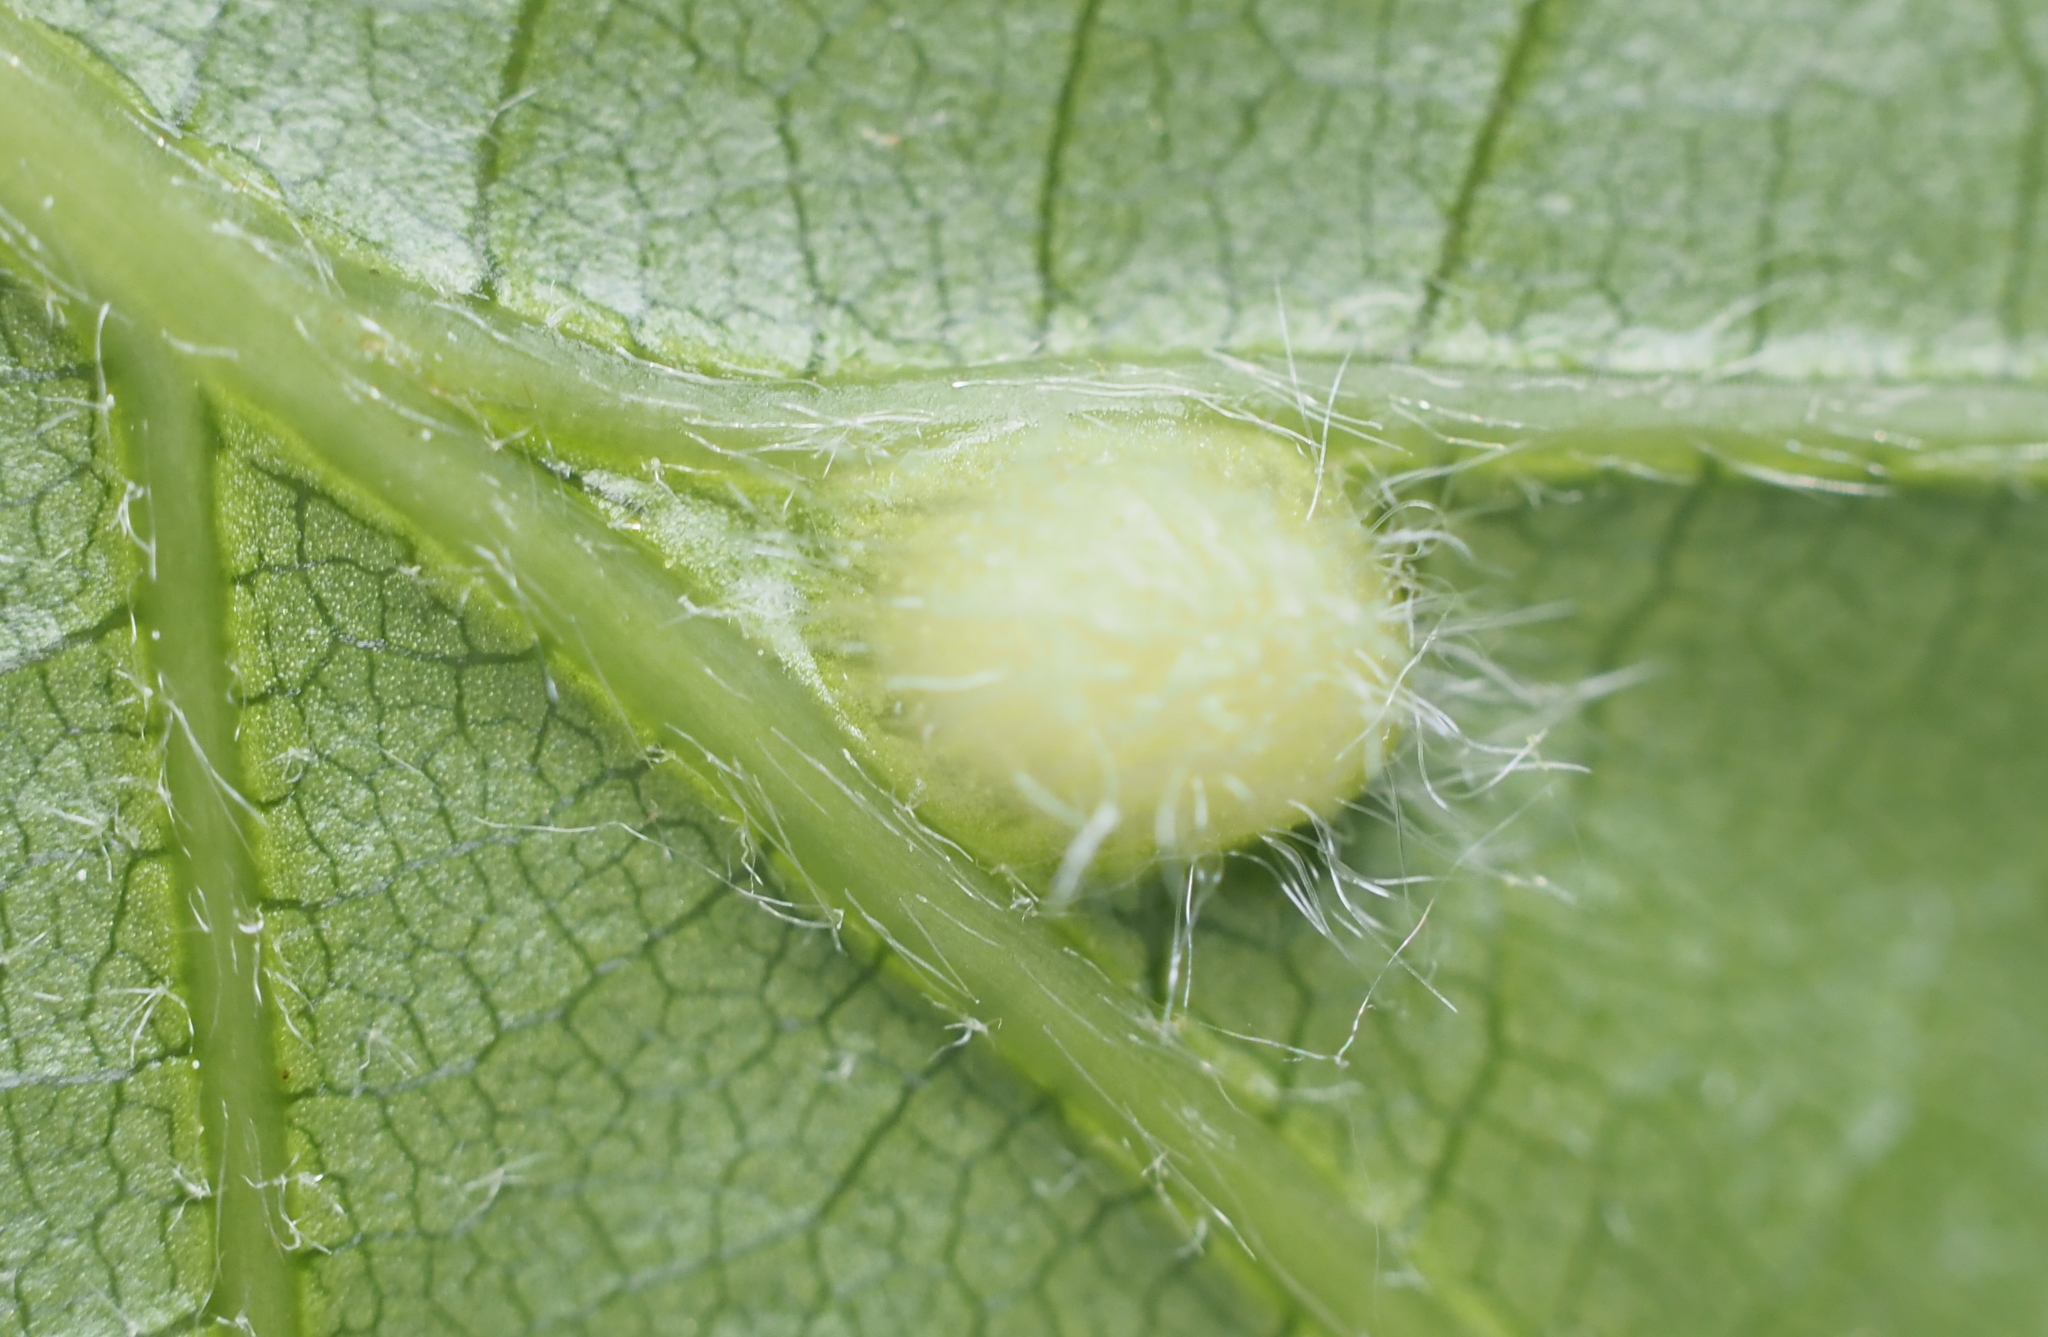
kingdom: Animalia
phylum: Arthropoda
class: Insecta
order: Hymenoptera
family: Cynipidae
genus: Dryocosmus
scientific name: Dryocosmus
